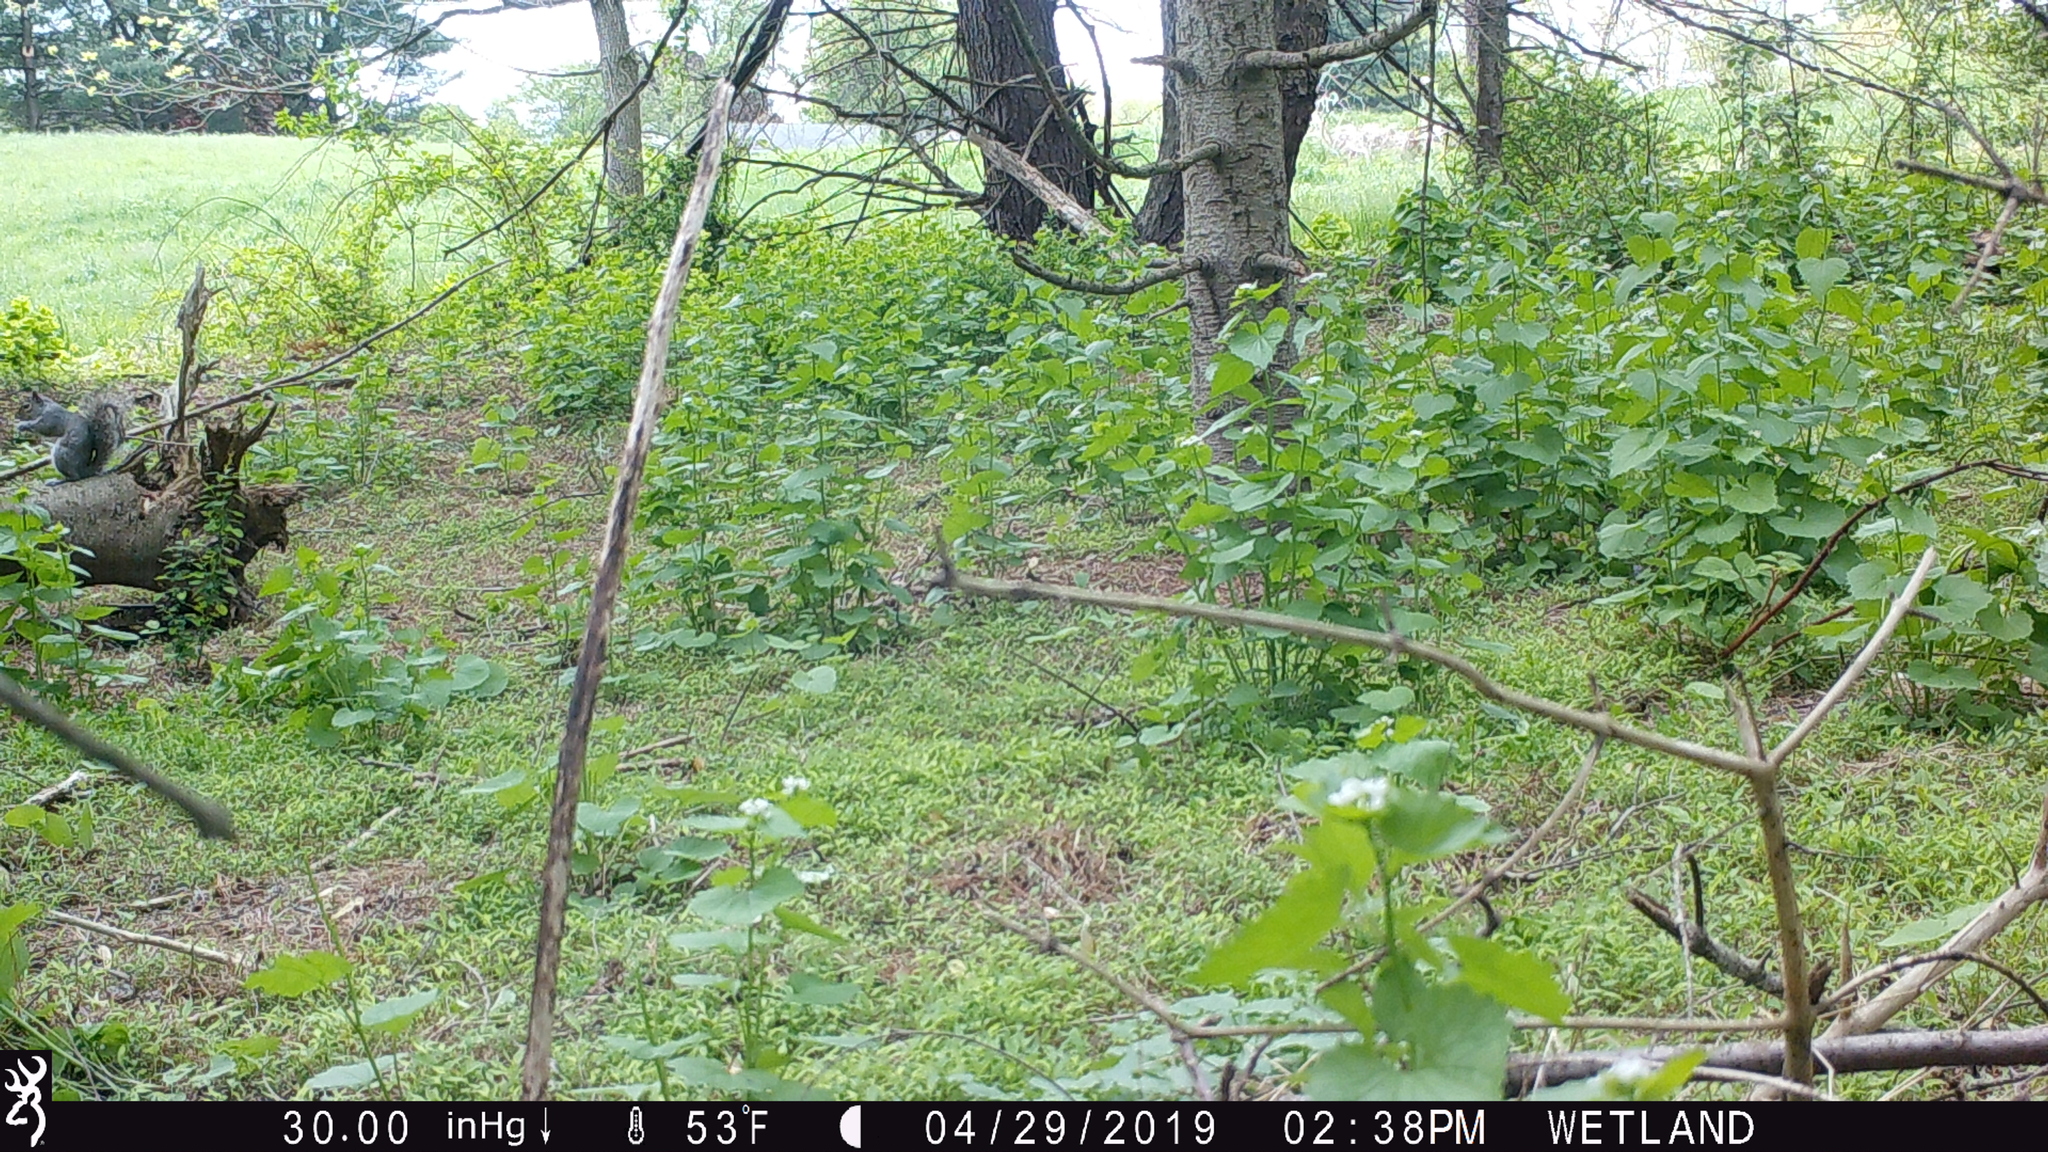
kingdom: Animalia
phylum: Chordata
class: Mammalia
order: Rodentia
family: Sciuridae
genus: Sciurus
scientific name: Sciurus carolinensis
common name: Eastern gray squirrel
